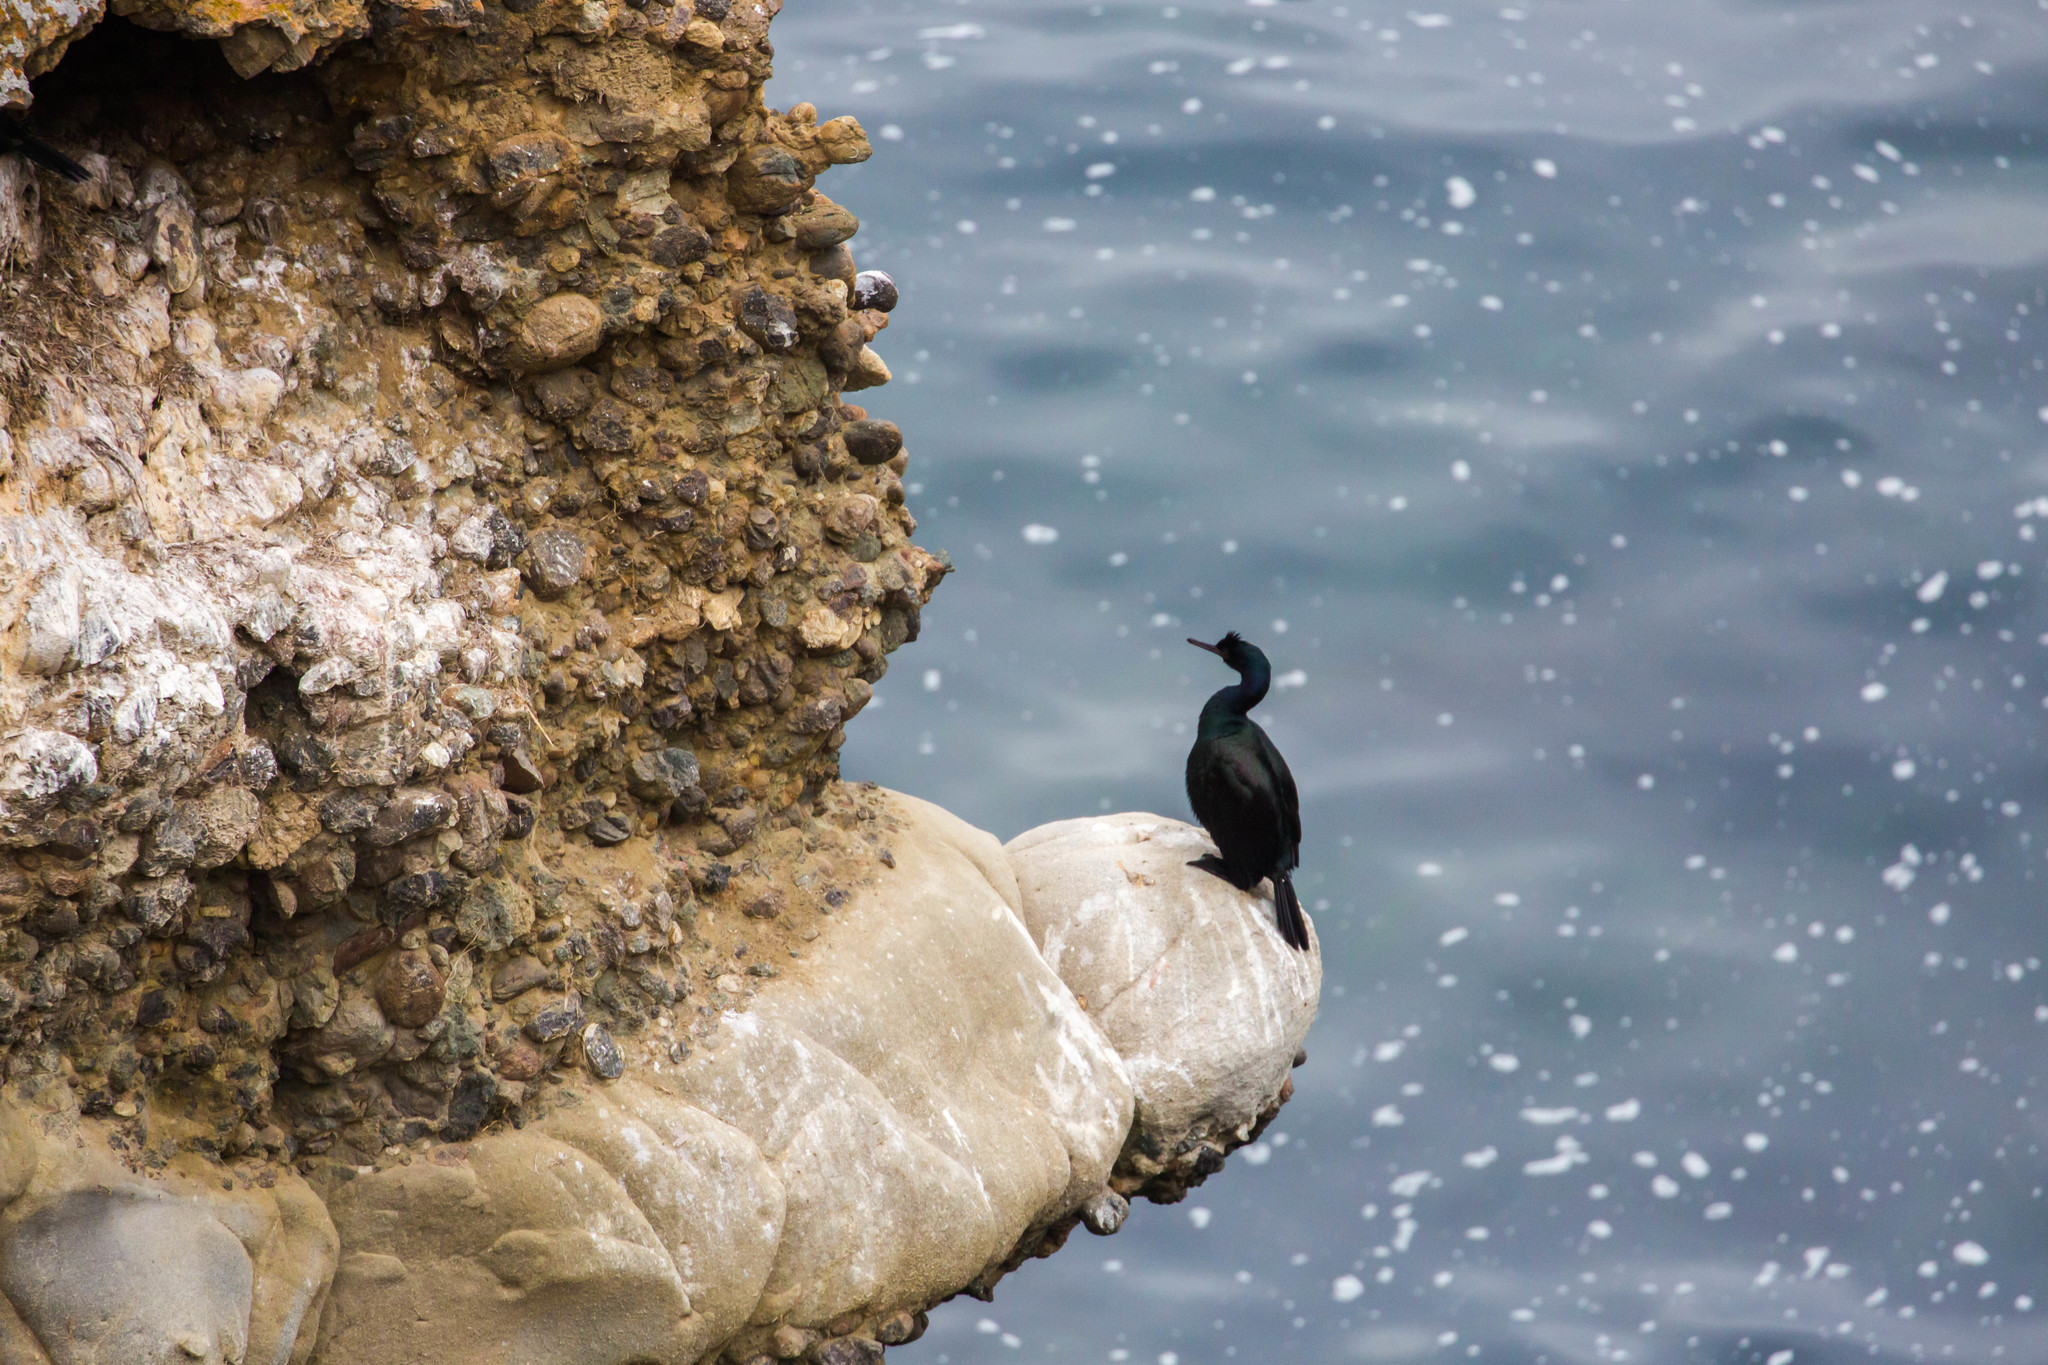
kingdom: Animalia
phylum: Chordata
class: Aves
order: Suliformes
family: Phalacrocoracidae
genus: Phalacrocorax
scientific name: Phalacrocorax pelagicus
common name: Pelagic cormorant
